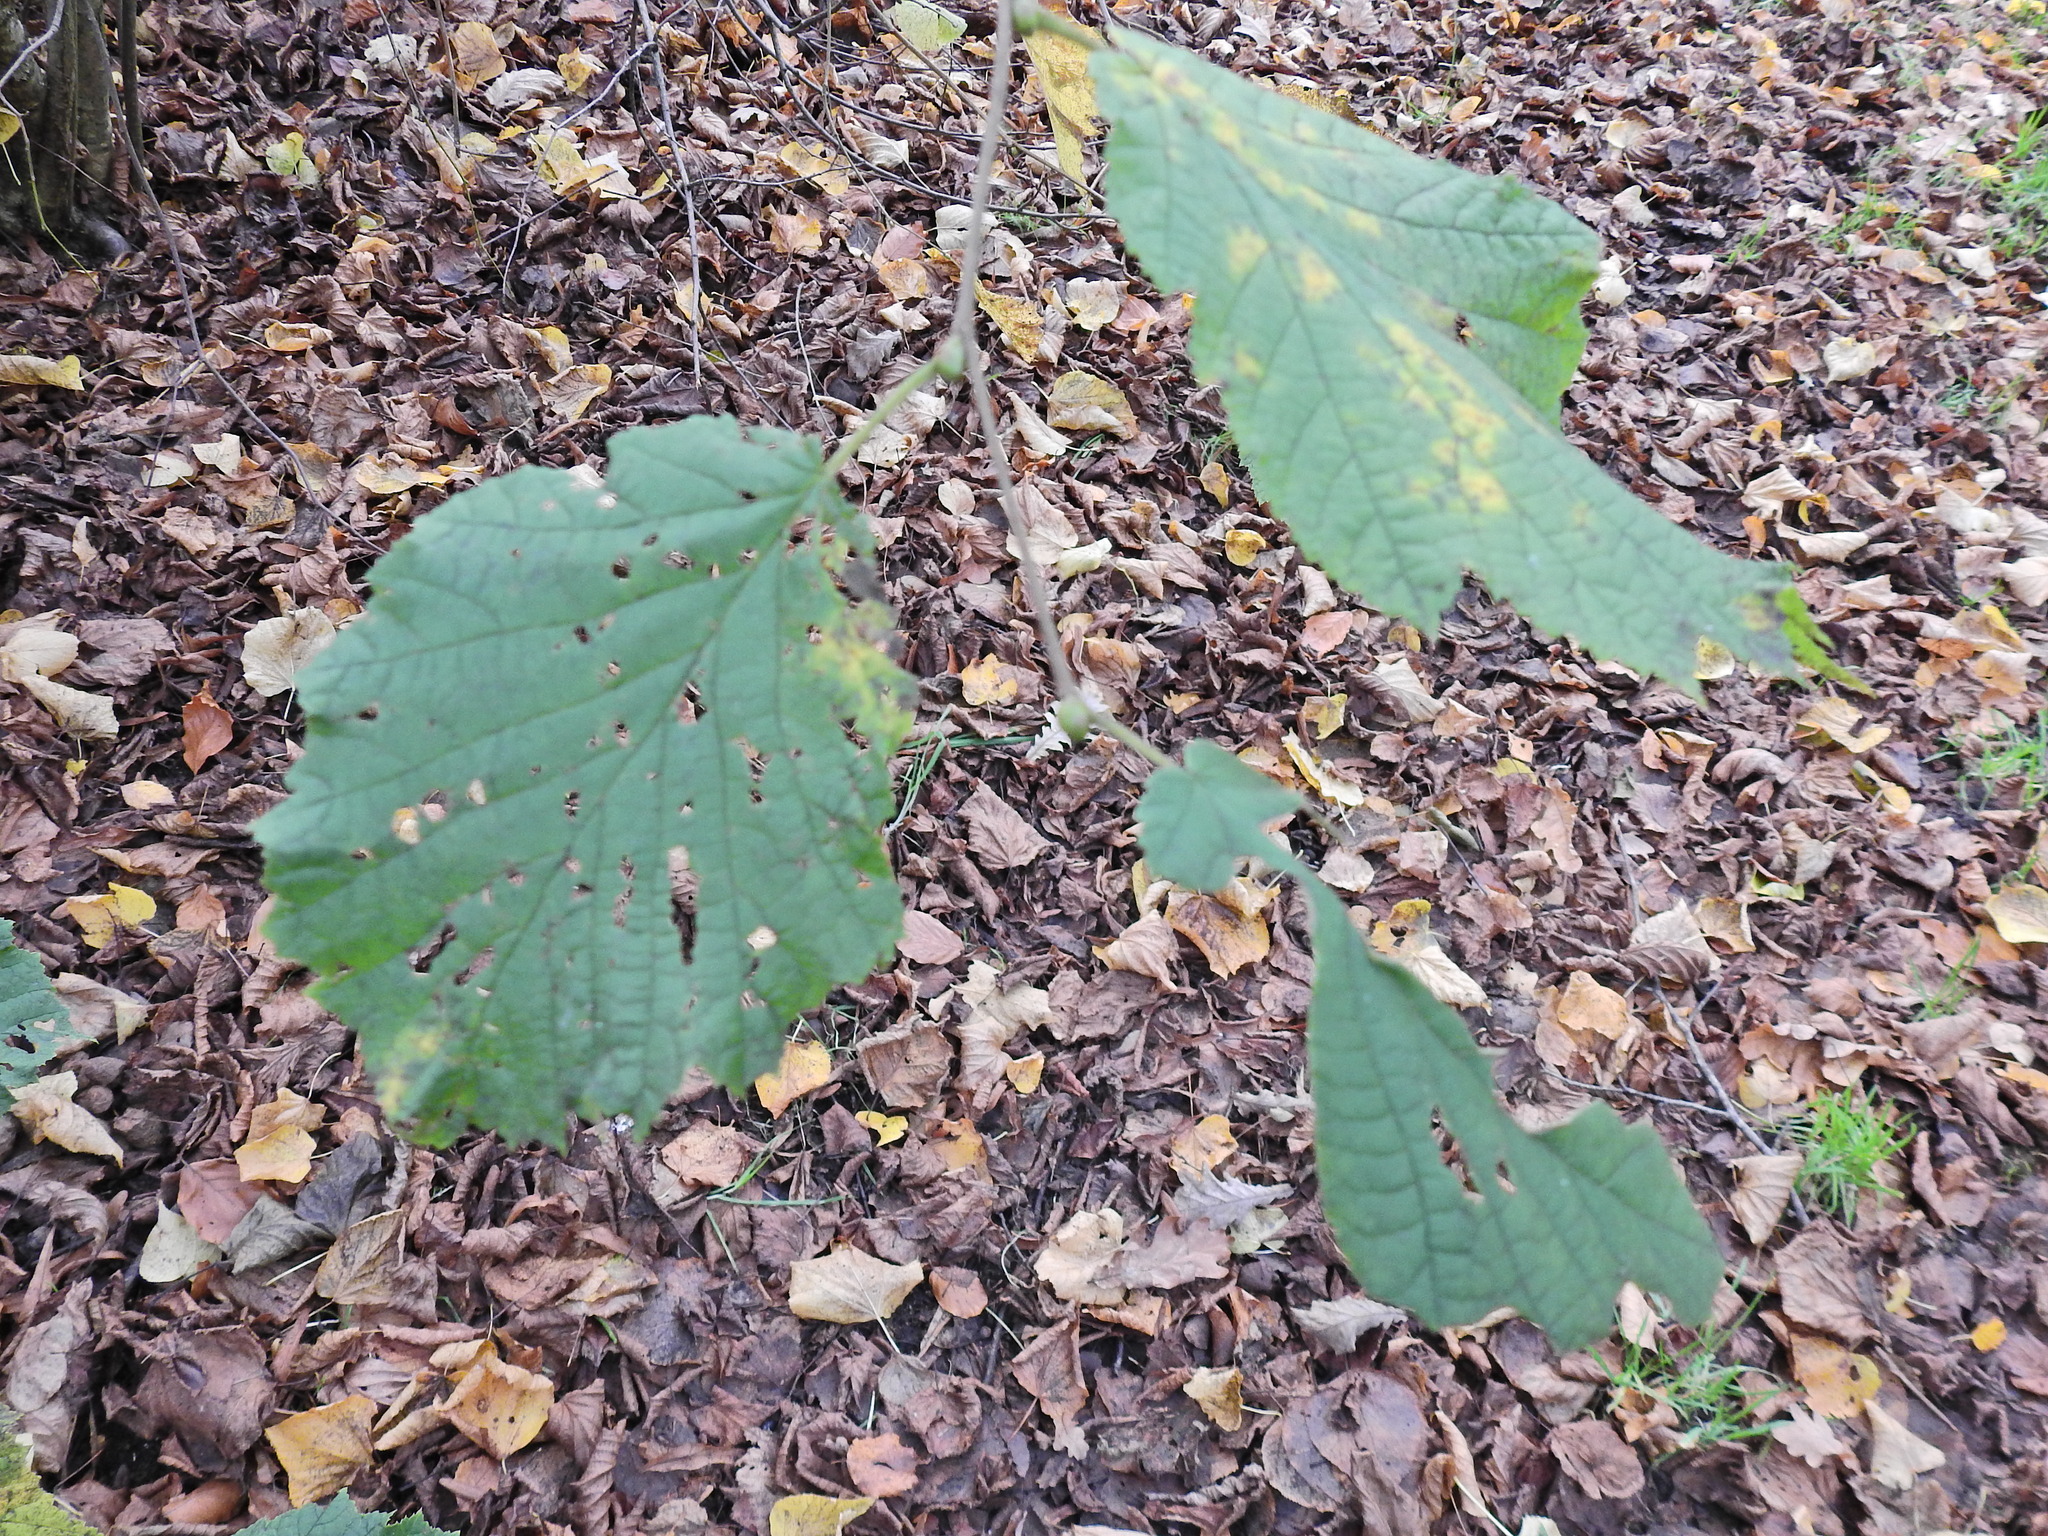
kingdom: Plantae
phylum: Tracheophyta
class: Magnoliopsida
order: Fagales
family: Betulaceae
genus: Corylus
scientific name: Corylus avellana
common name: European hazel
